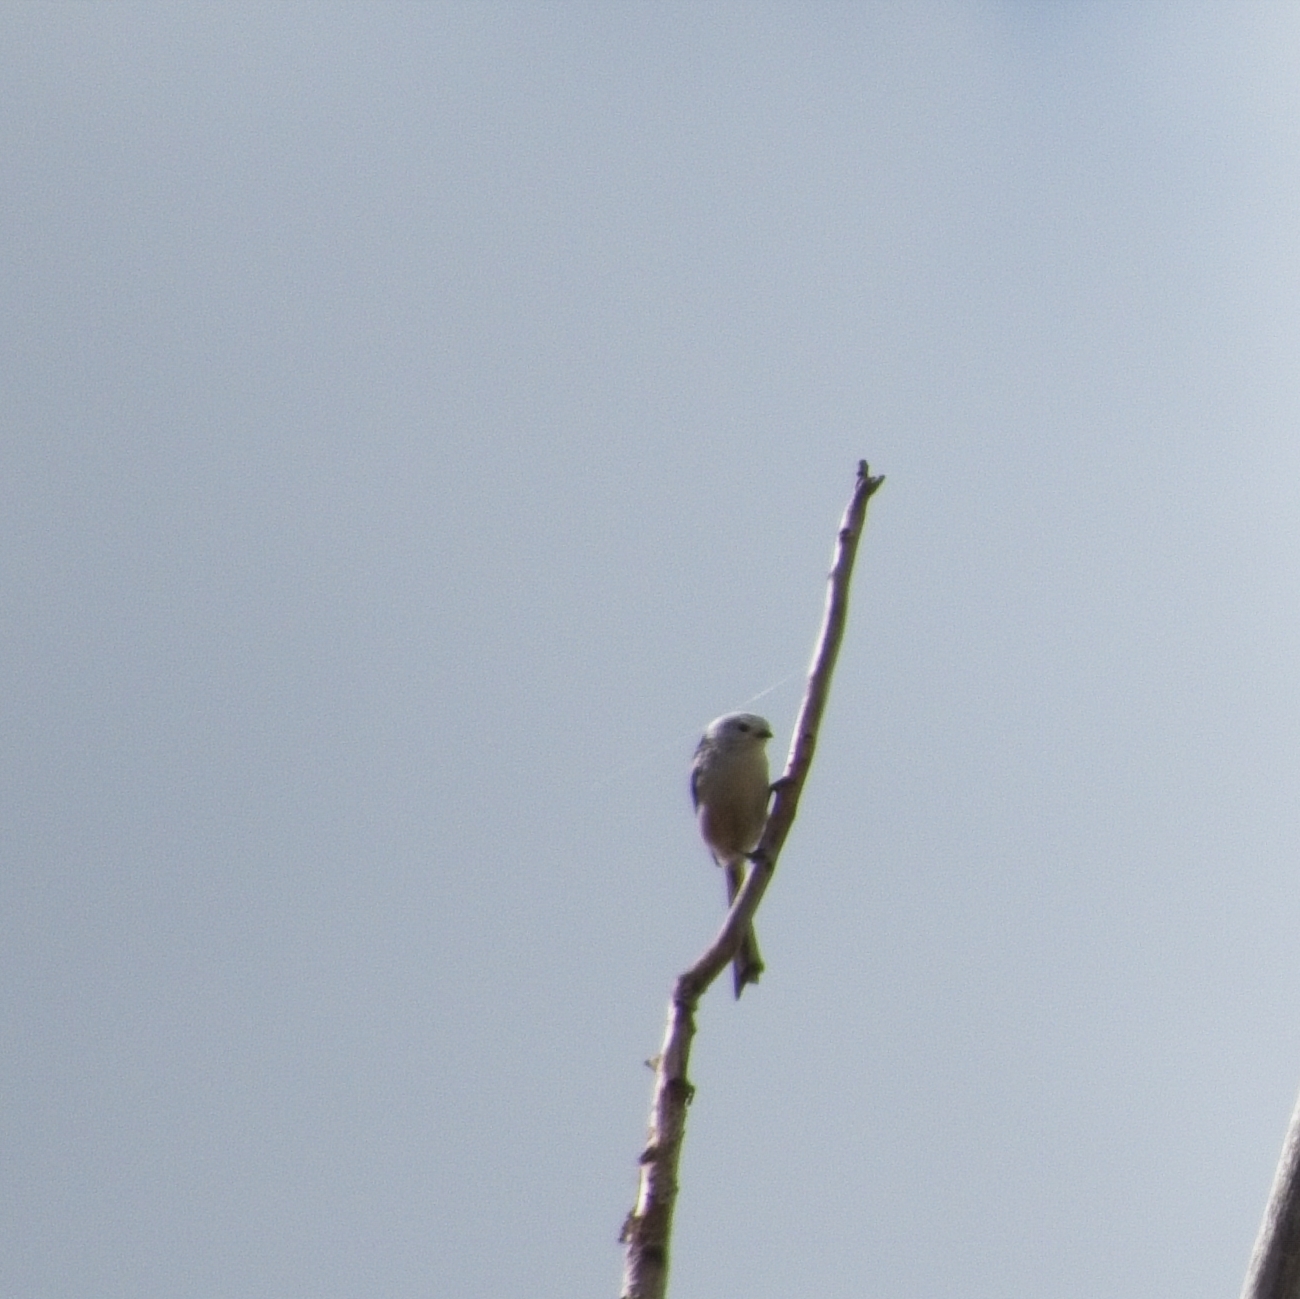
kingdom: Animalia
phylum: Chordata
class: Aves
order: Passeriformes
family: Aegithalidae
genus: Aegithalos
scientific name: Aegithalos caudatus
